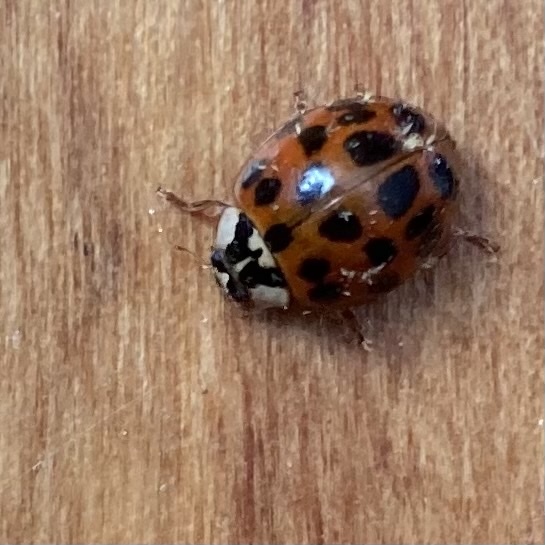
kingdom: Animalia
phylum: Arthropoda
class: Insecta
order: Coleoptera
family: Coccinellidae
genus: Harmonia
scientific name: Harmonia axyridis
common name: Harlequin ladybird
